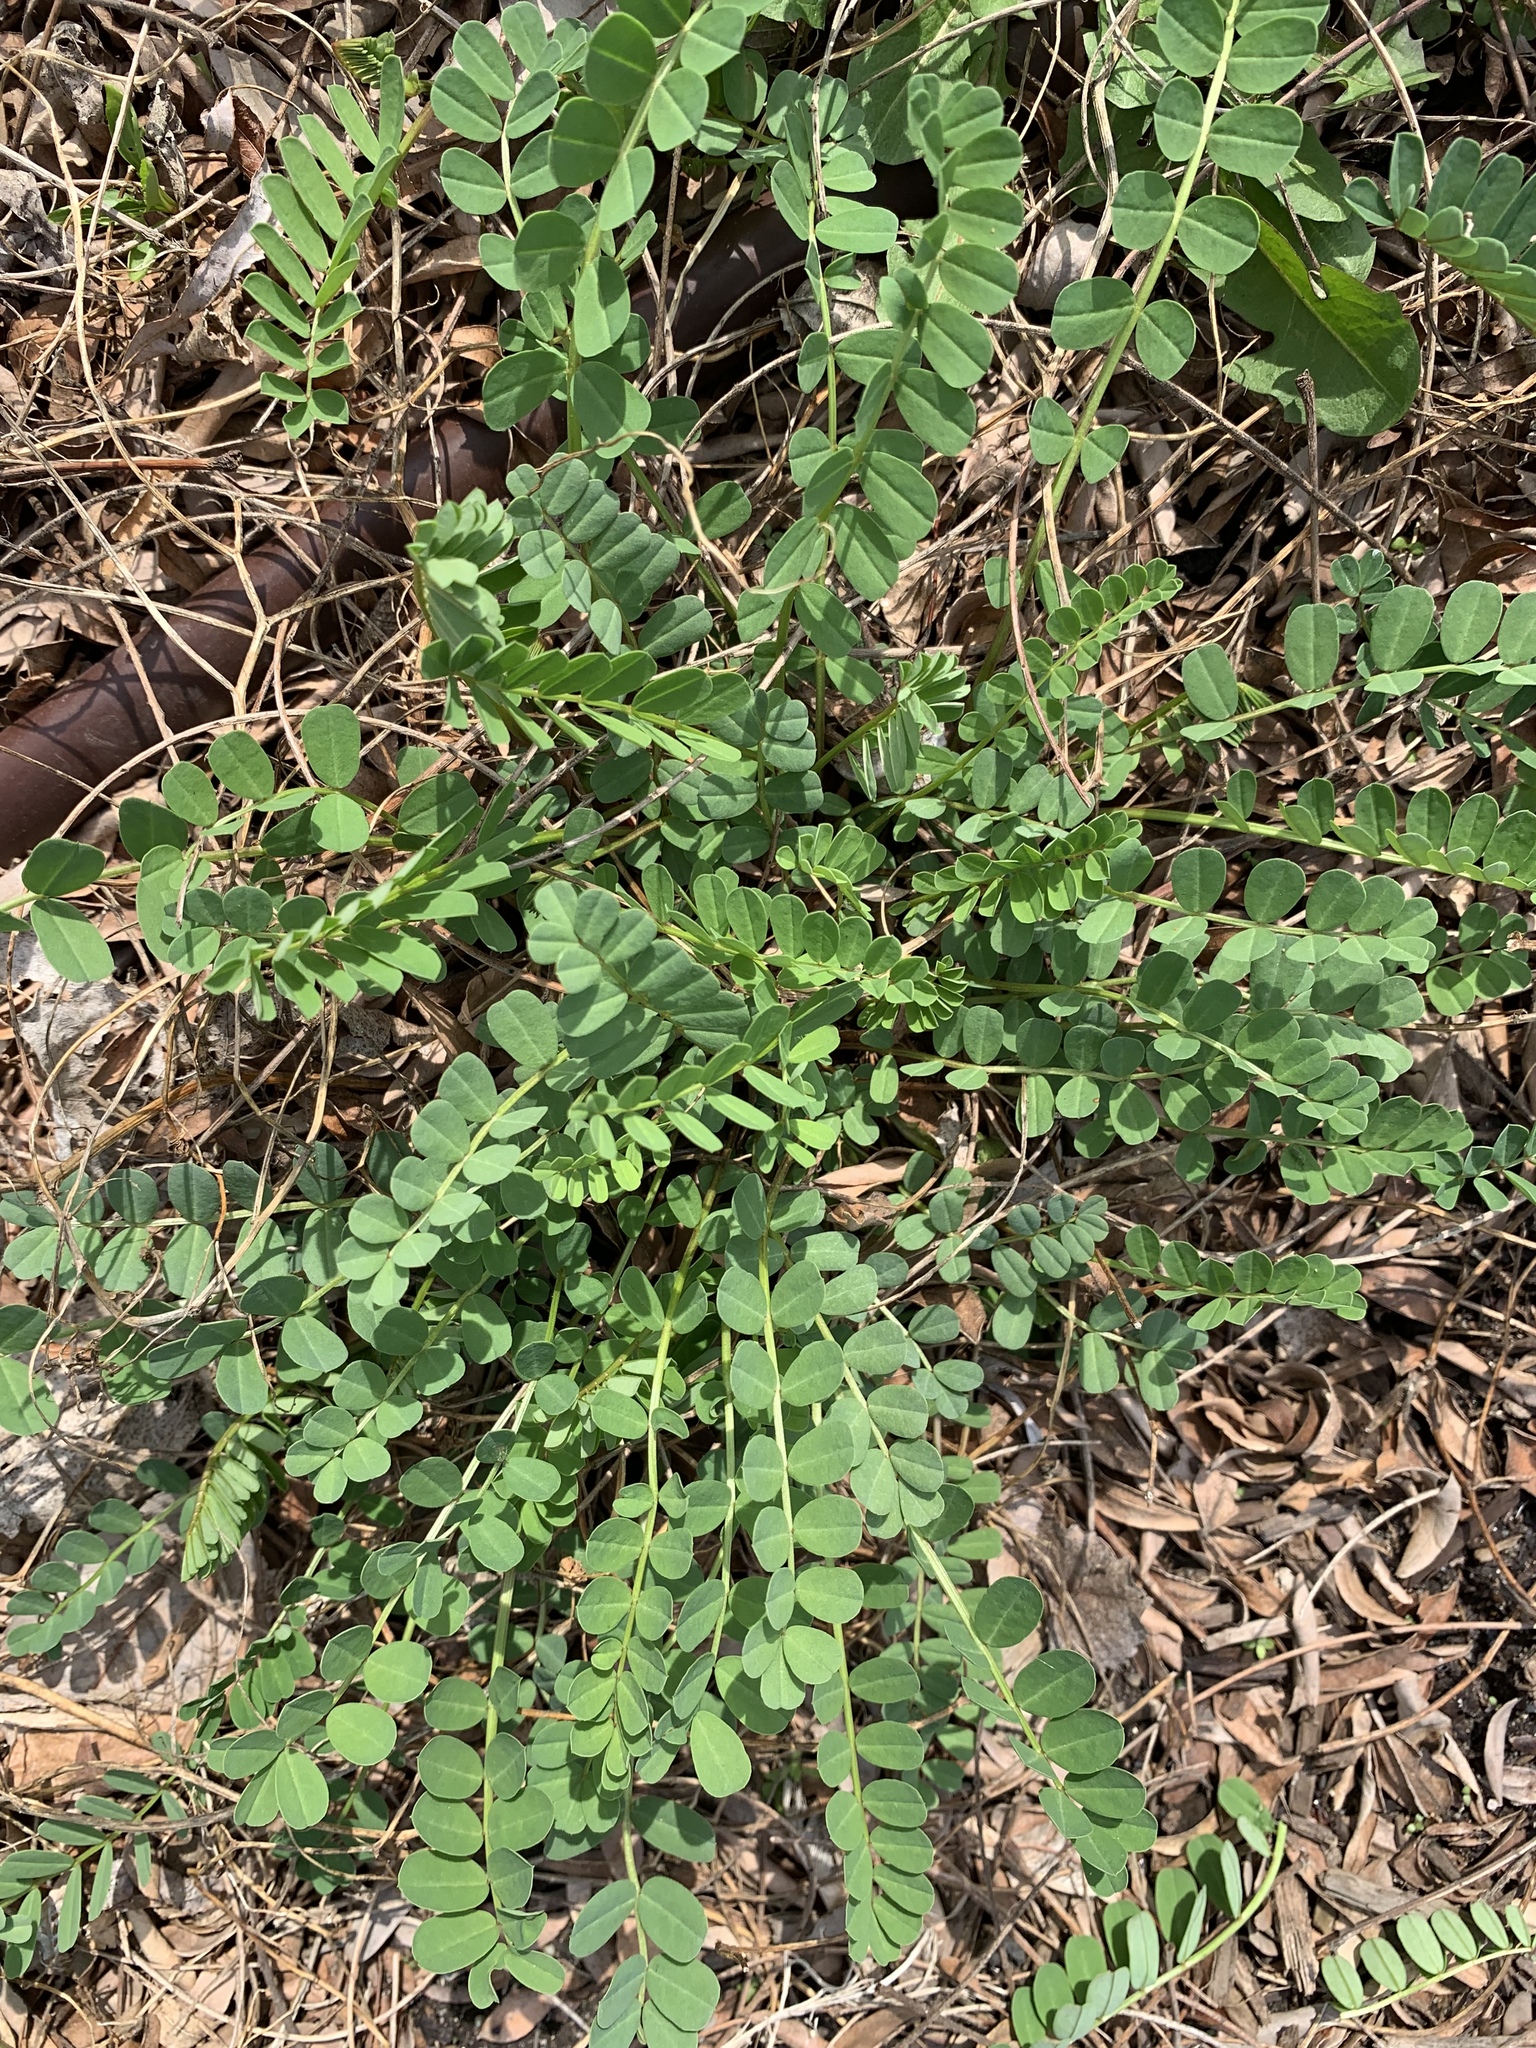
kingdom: Plantae
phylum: Tracheophyta
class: Magnoliopsida
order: Fabales
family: Fabaceae
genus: Coronilla
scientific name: Coronilla varia
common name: Crownvetch
